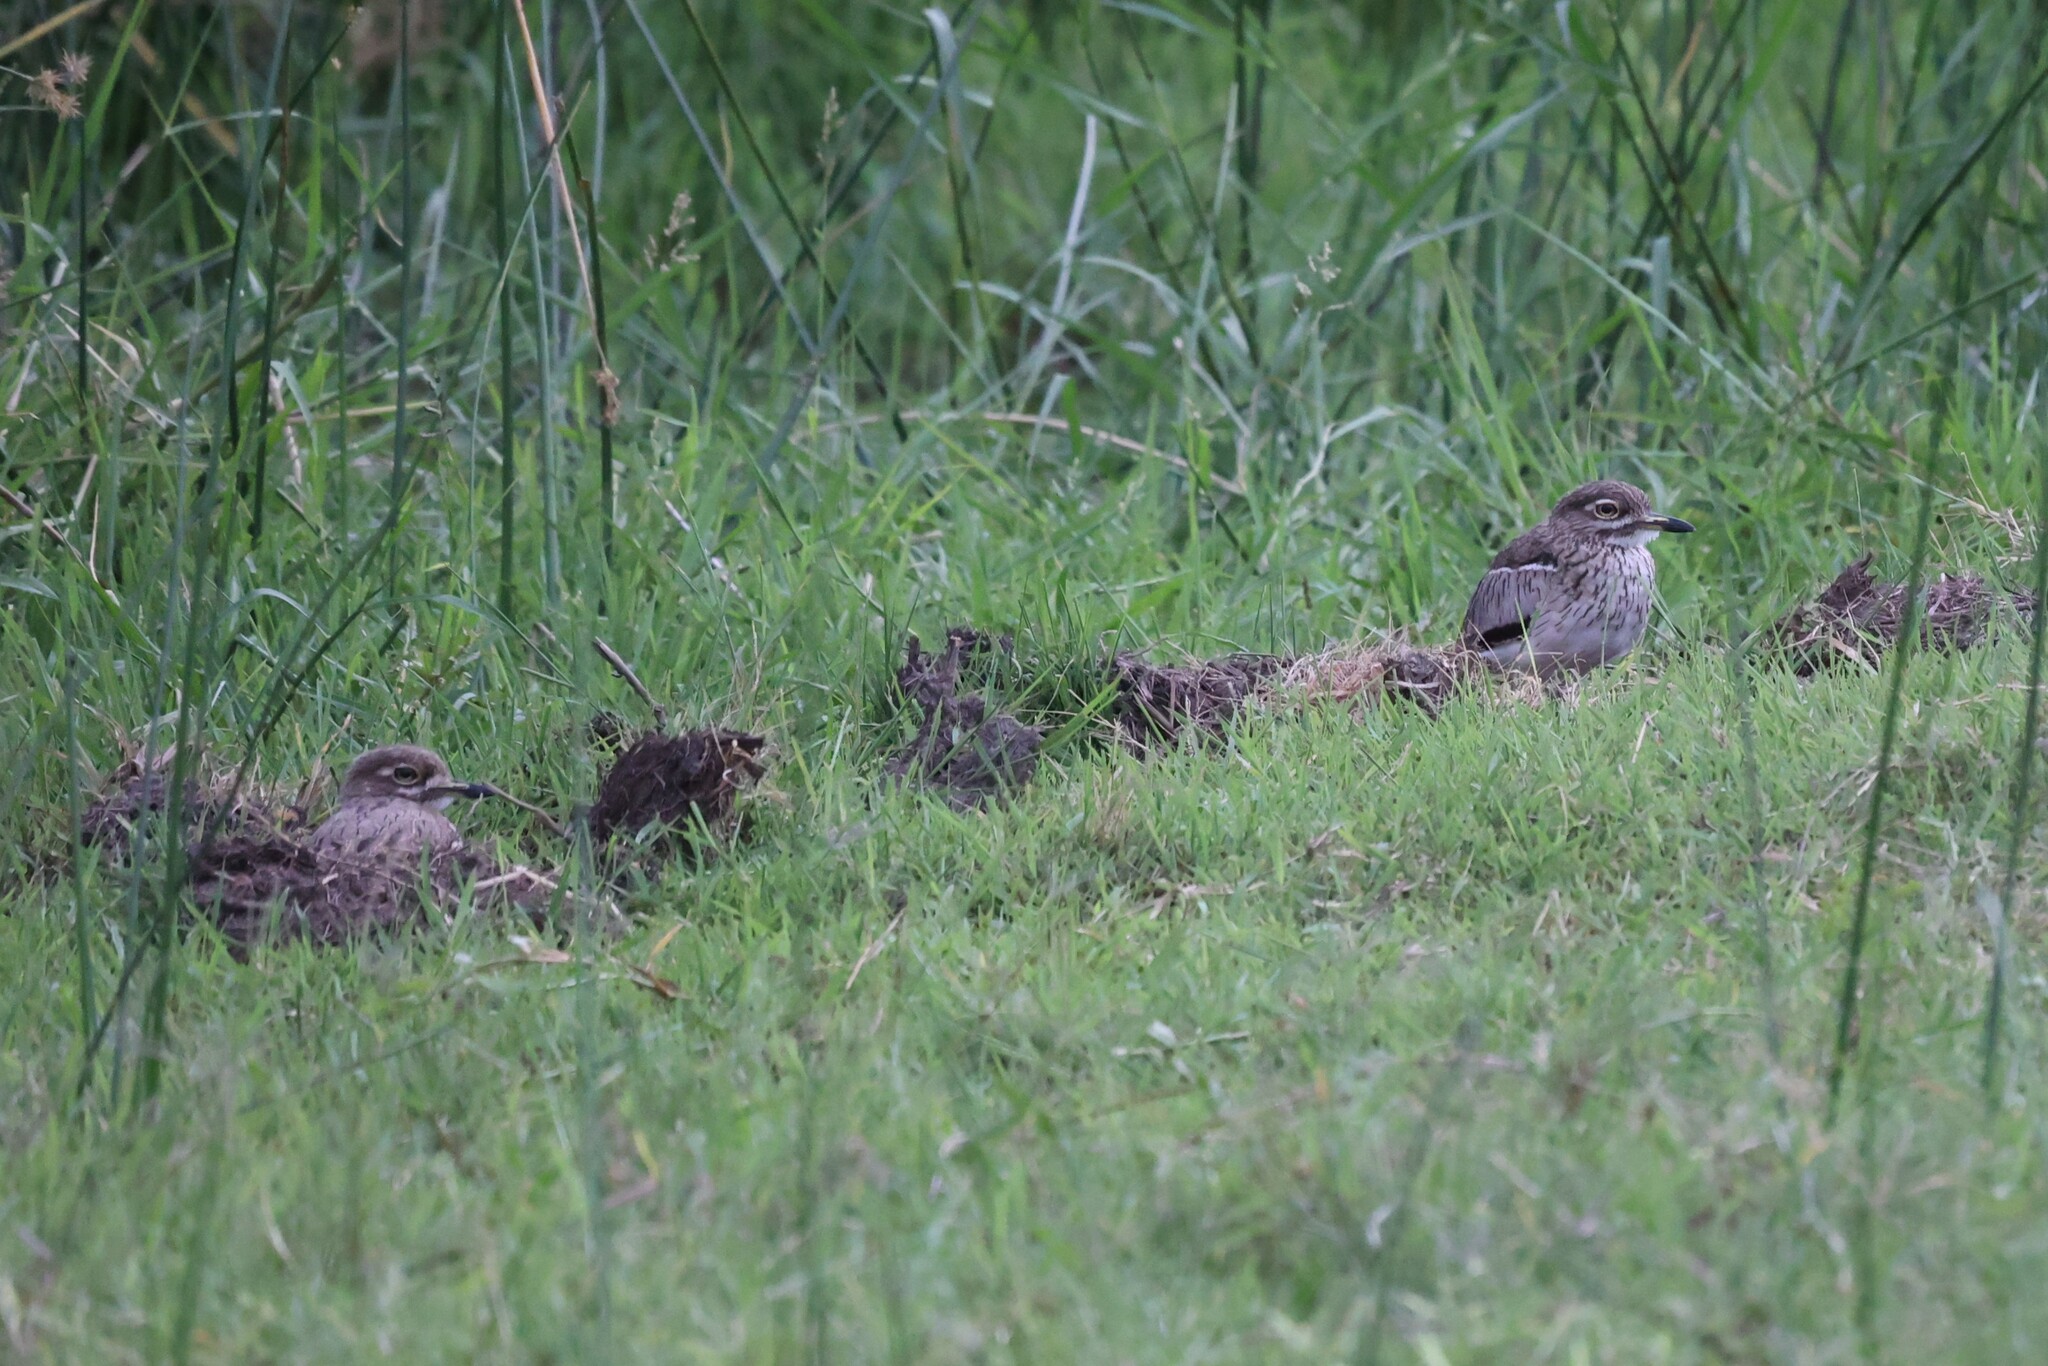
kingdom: Animalia
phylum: Chordata
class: Aves
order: Charadriiformes
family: Burhinidae
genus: Burhinus
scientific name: Burhinus vermiculatus
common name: Water thick-knee
